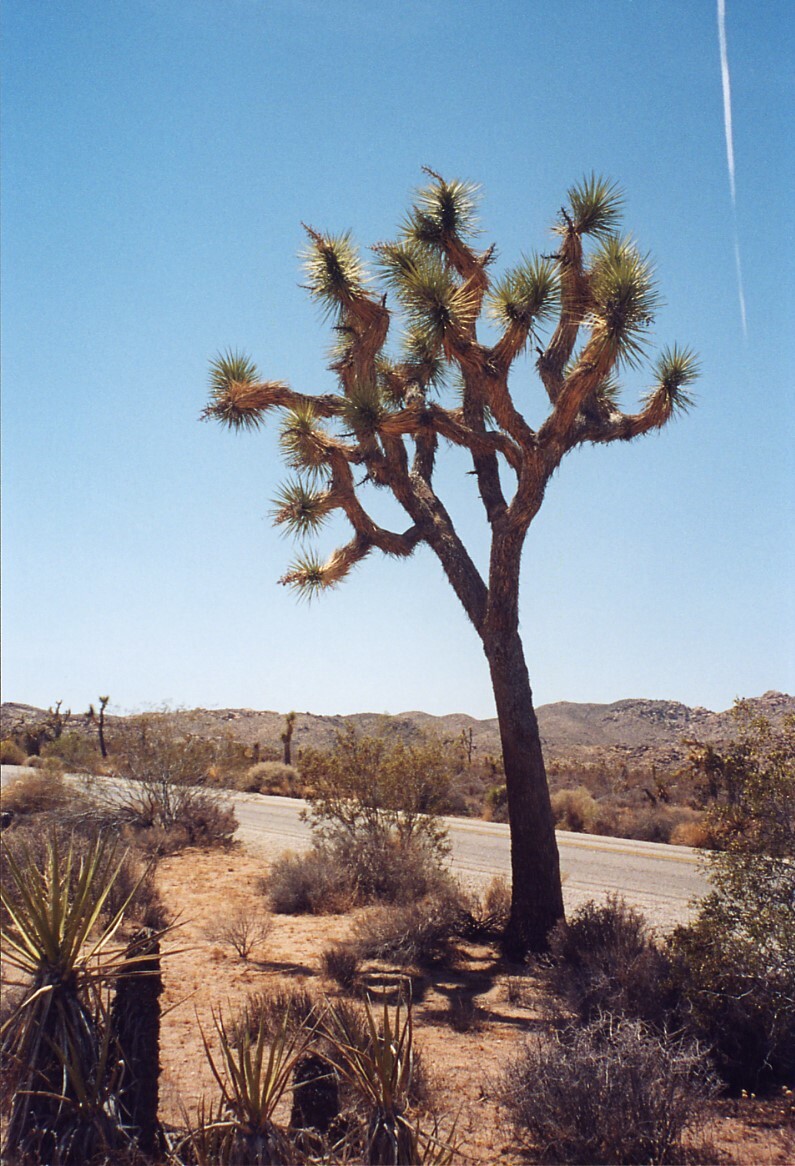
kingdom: Plantae
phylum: Tracheophyta
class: Liliopsida
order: Asparagales
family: Asparagaceae
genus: Yucca
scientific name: Yucca brevifolia
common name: Joshua tree
